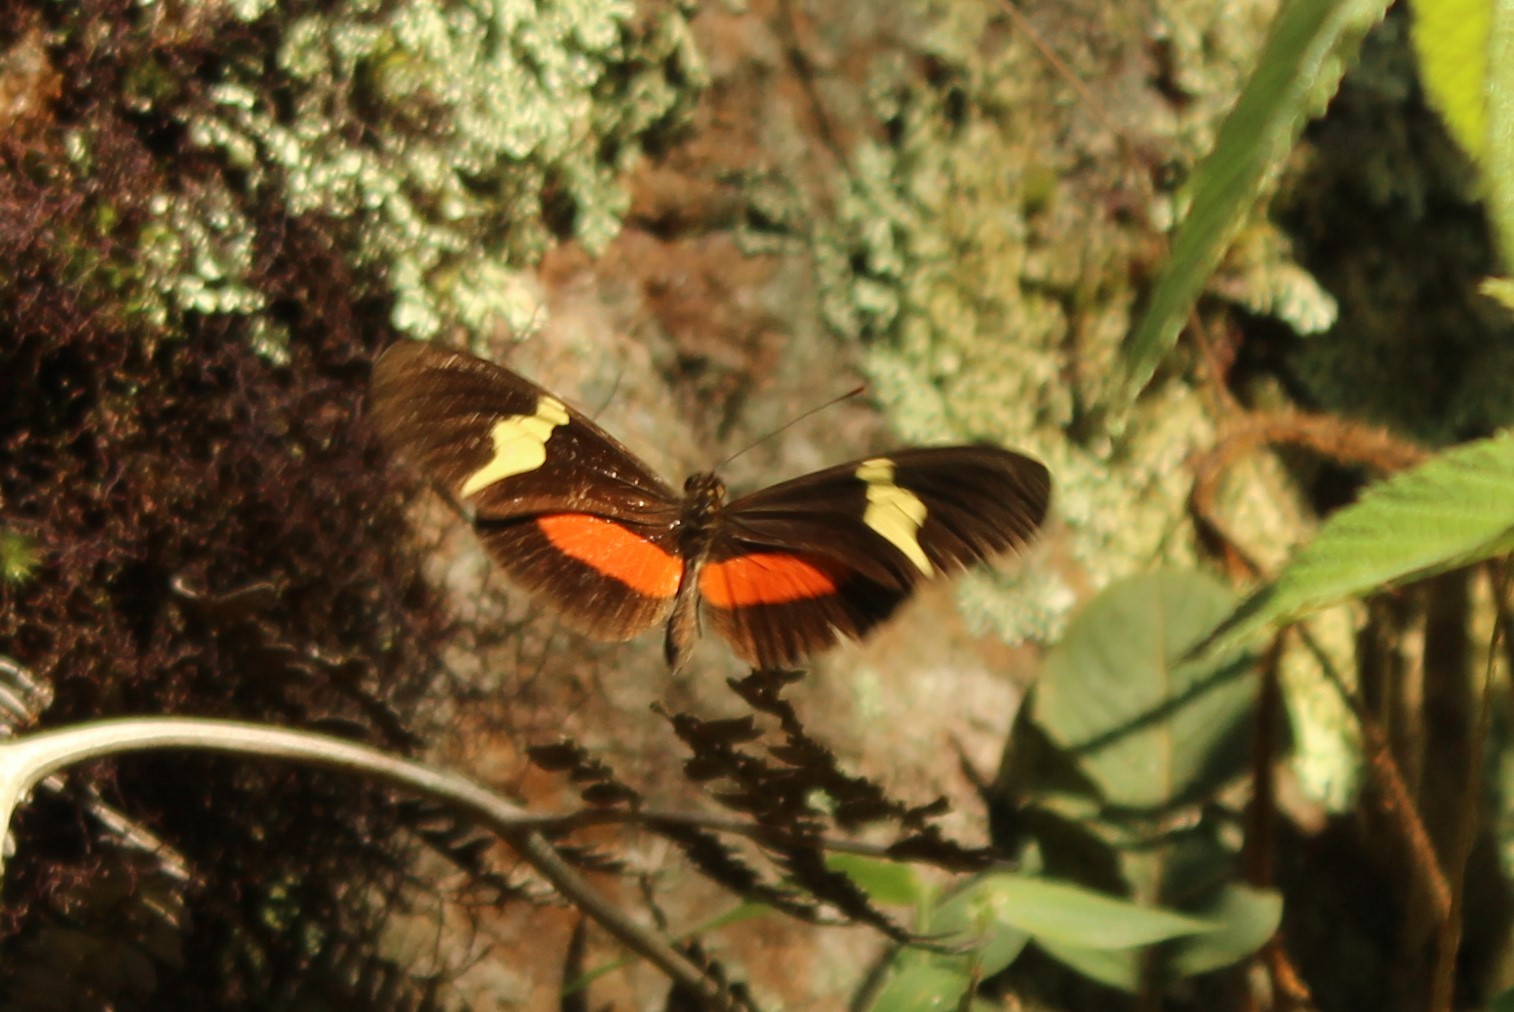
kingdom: Animalia
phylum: Arthropoda
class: Insecta
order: Lepidoptera
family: Nymphalidae
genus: Heliconius
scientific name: Heliconius clysonymus
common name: Clysonymus longwing
